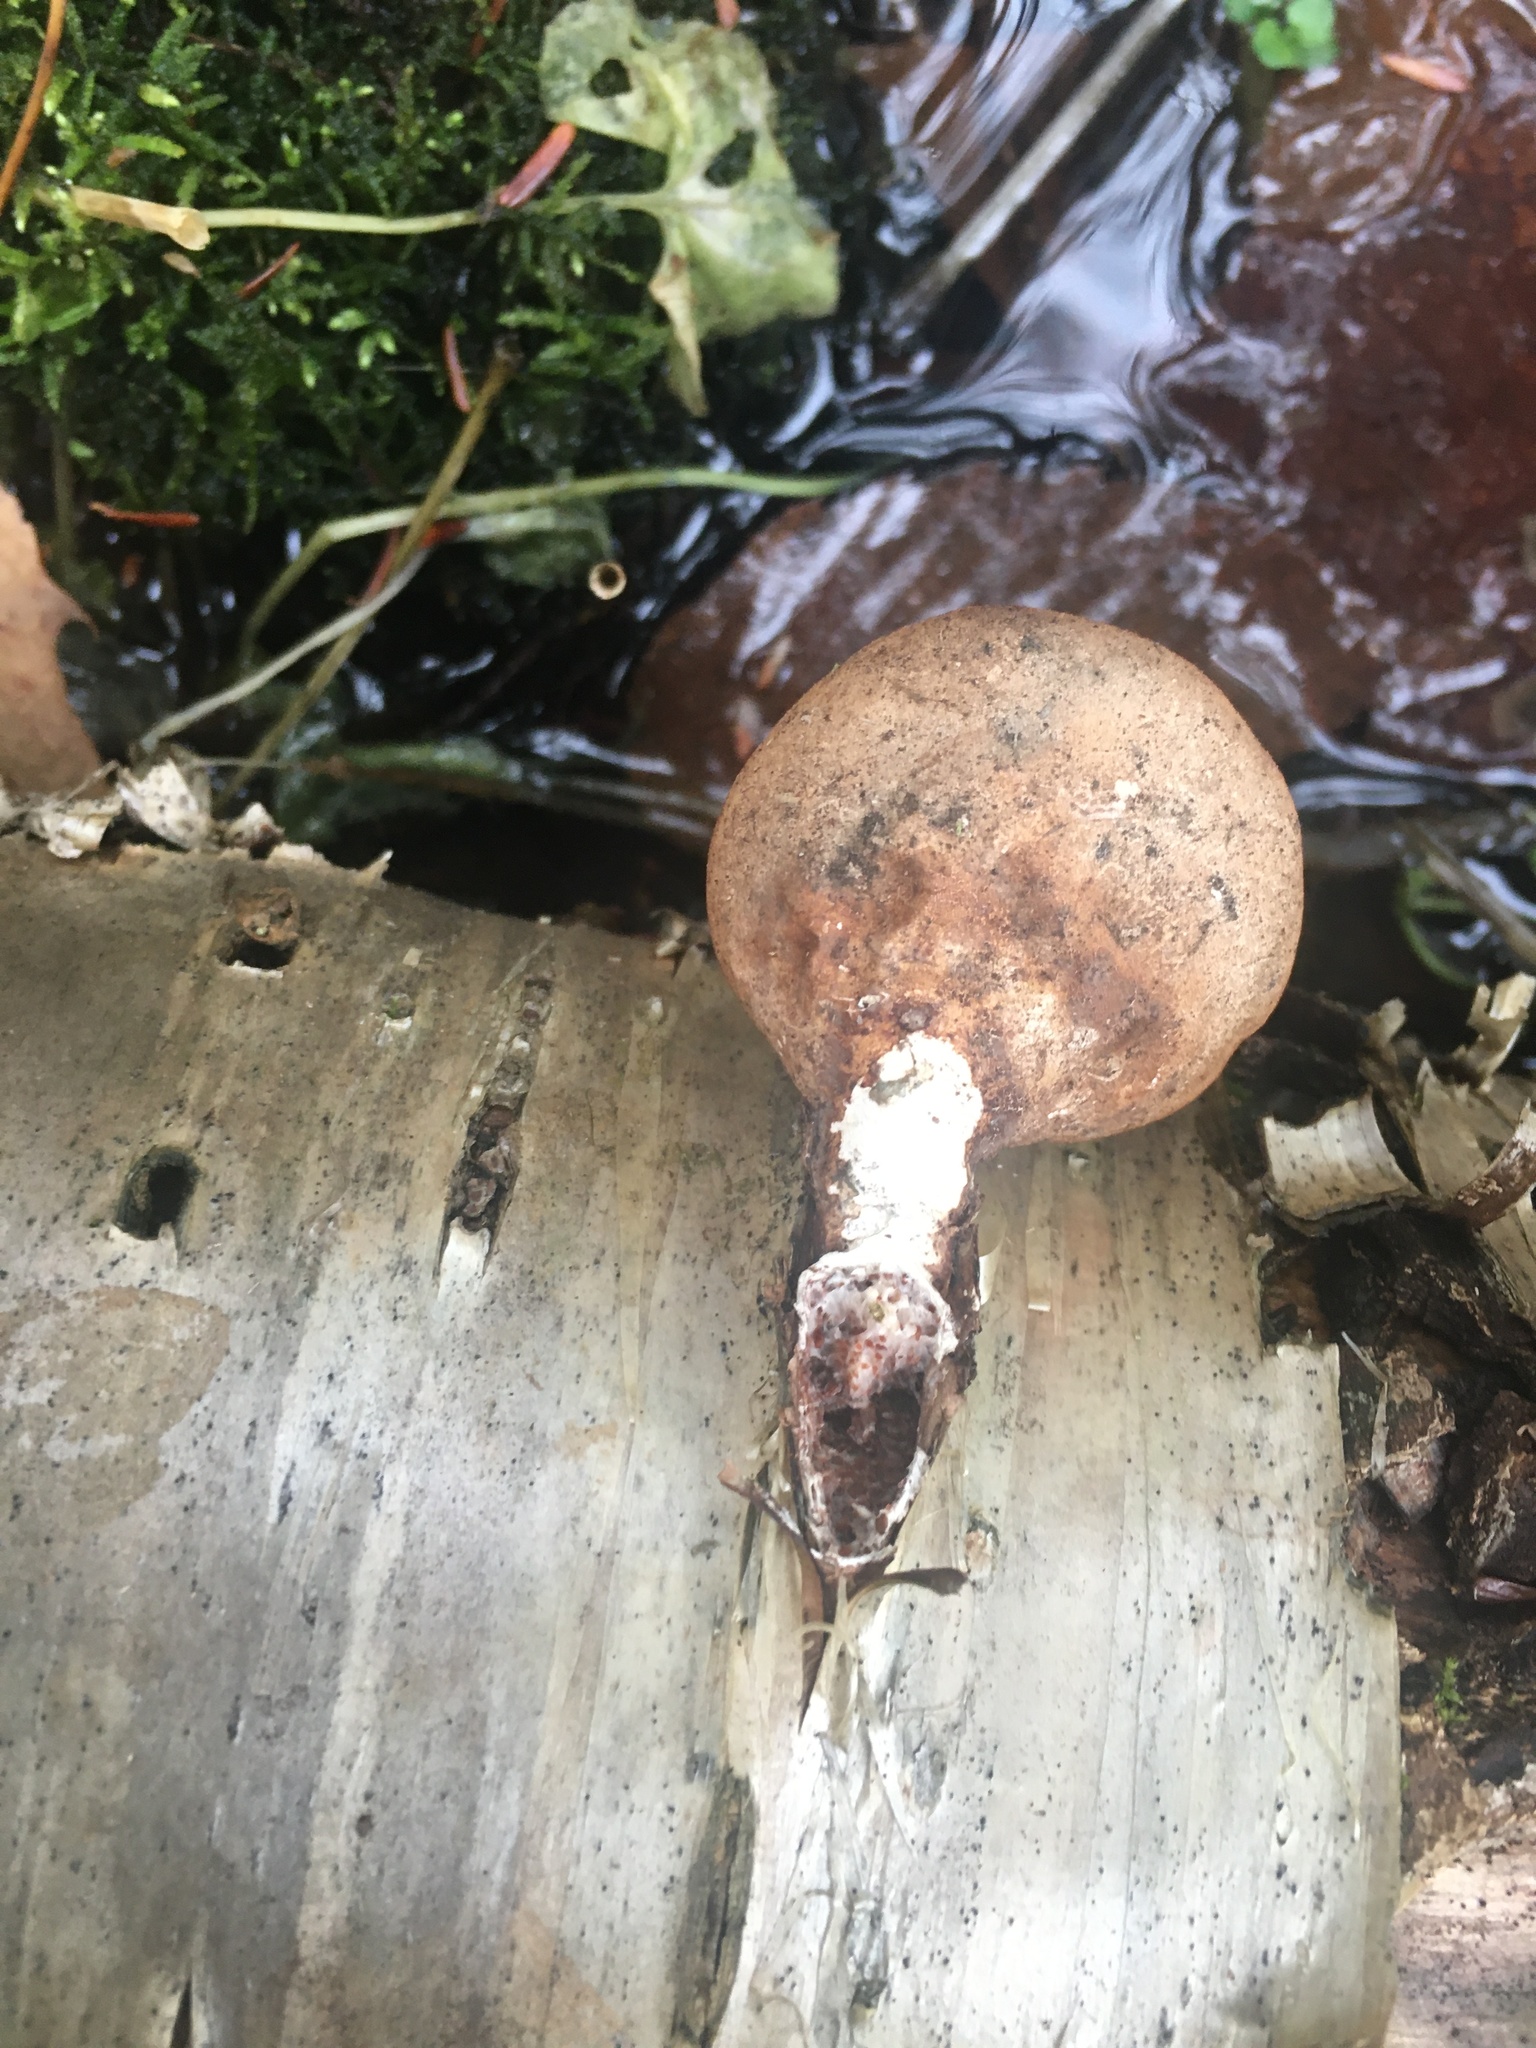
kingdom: Fungi
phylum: Basidiomycota
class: Agaricomycetes
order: Polyporales
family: Fomitopsidaceae
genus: Fomitopsis
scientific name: Fomitopsis betulina
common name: Birch polypore
